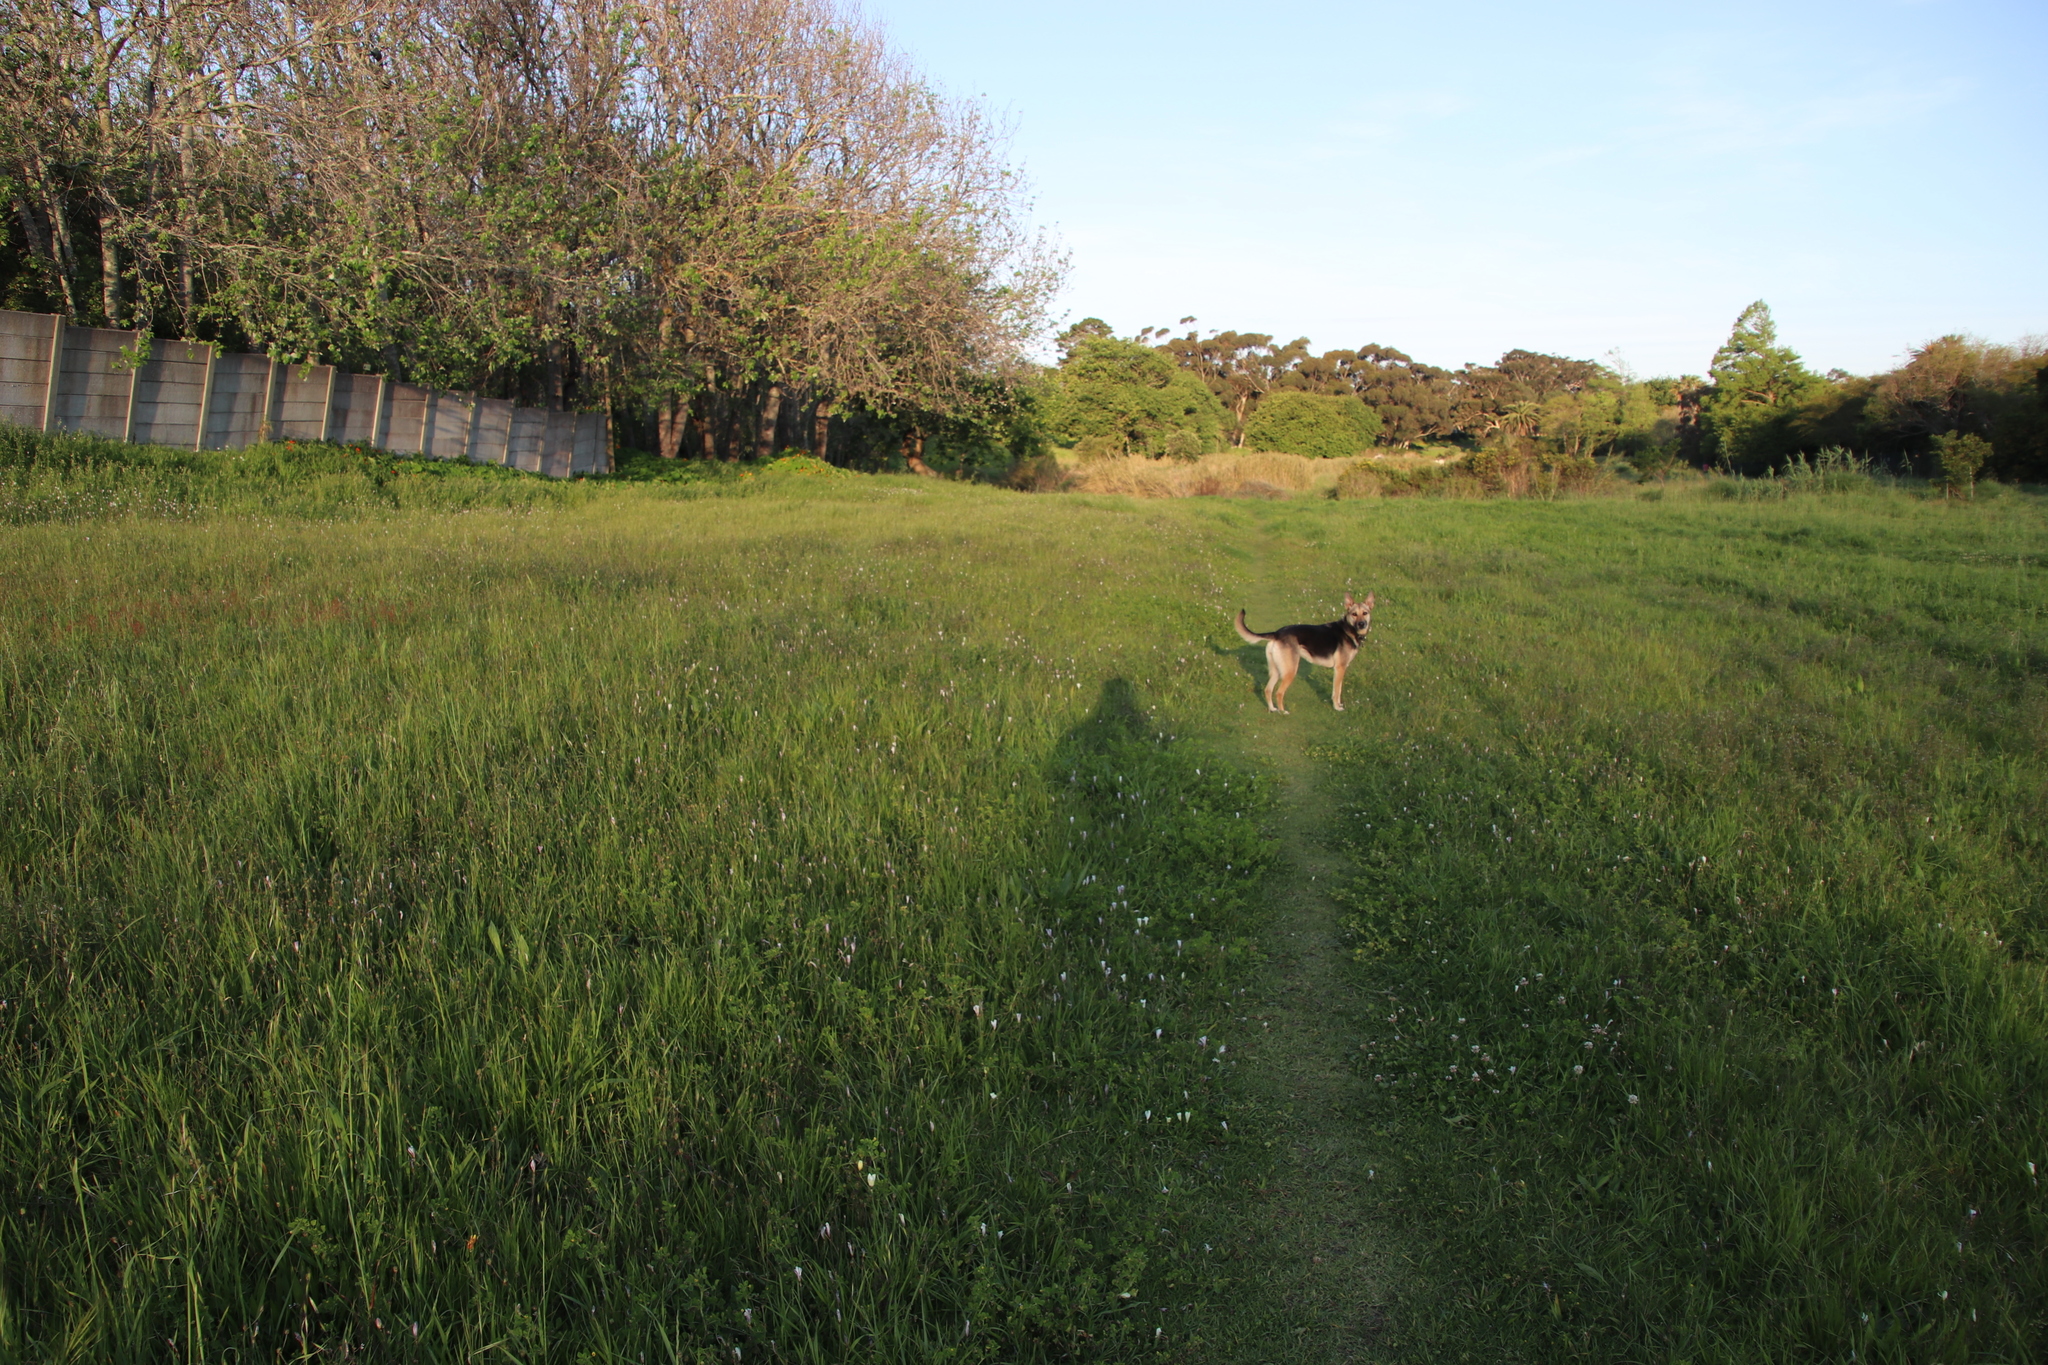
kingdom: Plantae
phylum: Tracheophyta
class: Liliopsida
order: Asparagales
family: Iridaceae
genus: Sparaxis
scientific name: Sparaxis bulbifera
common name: Harlequin-flower
